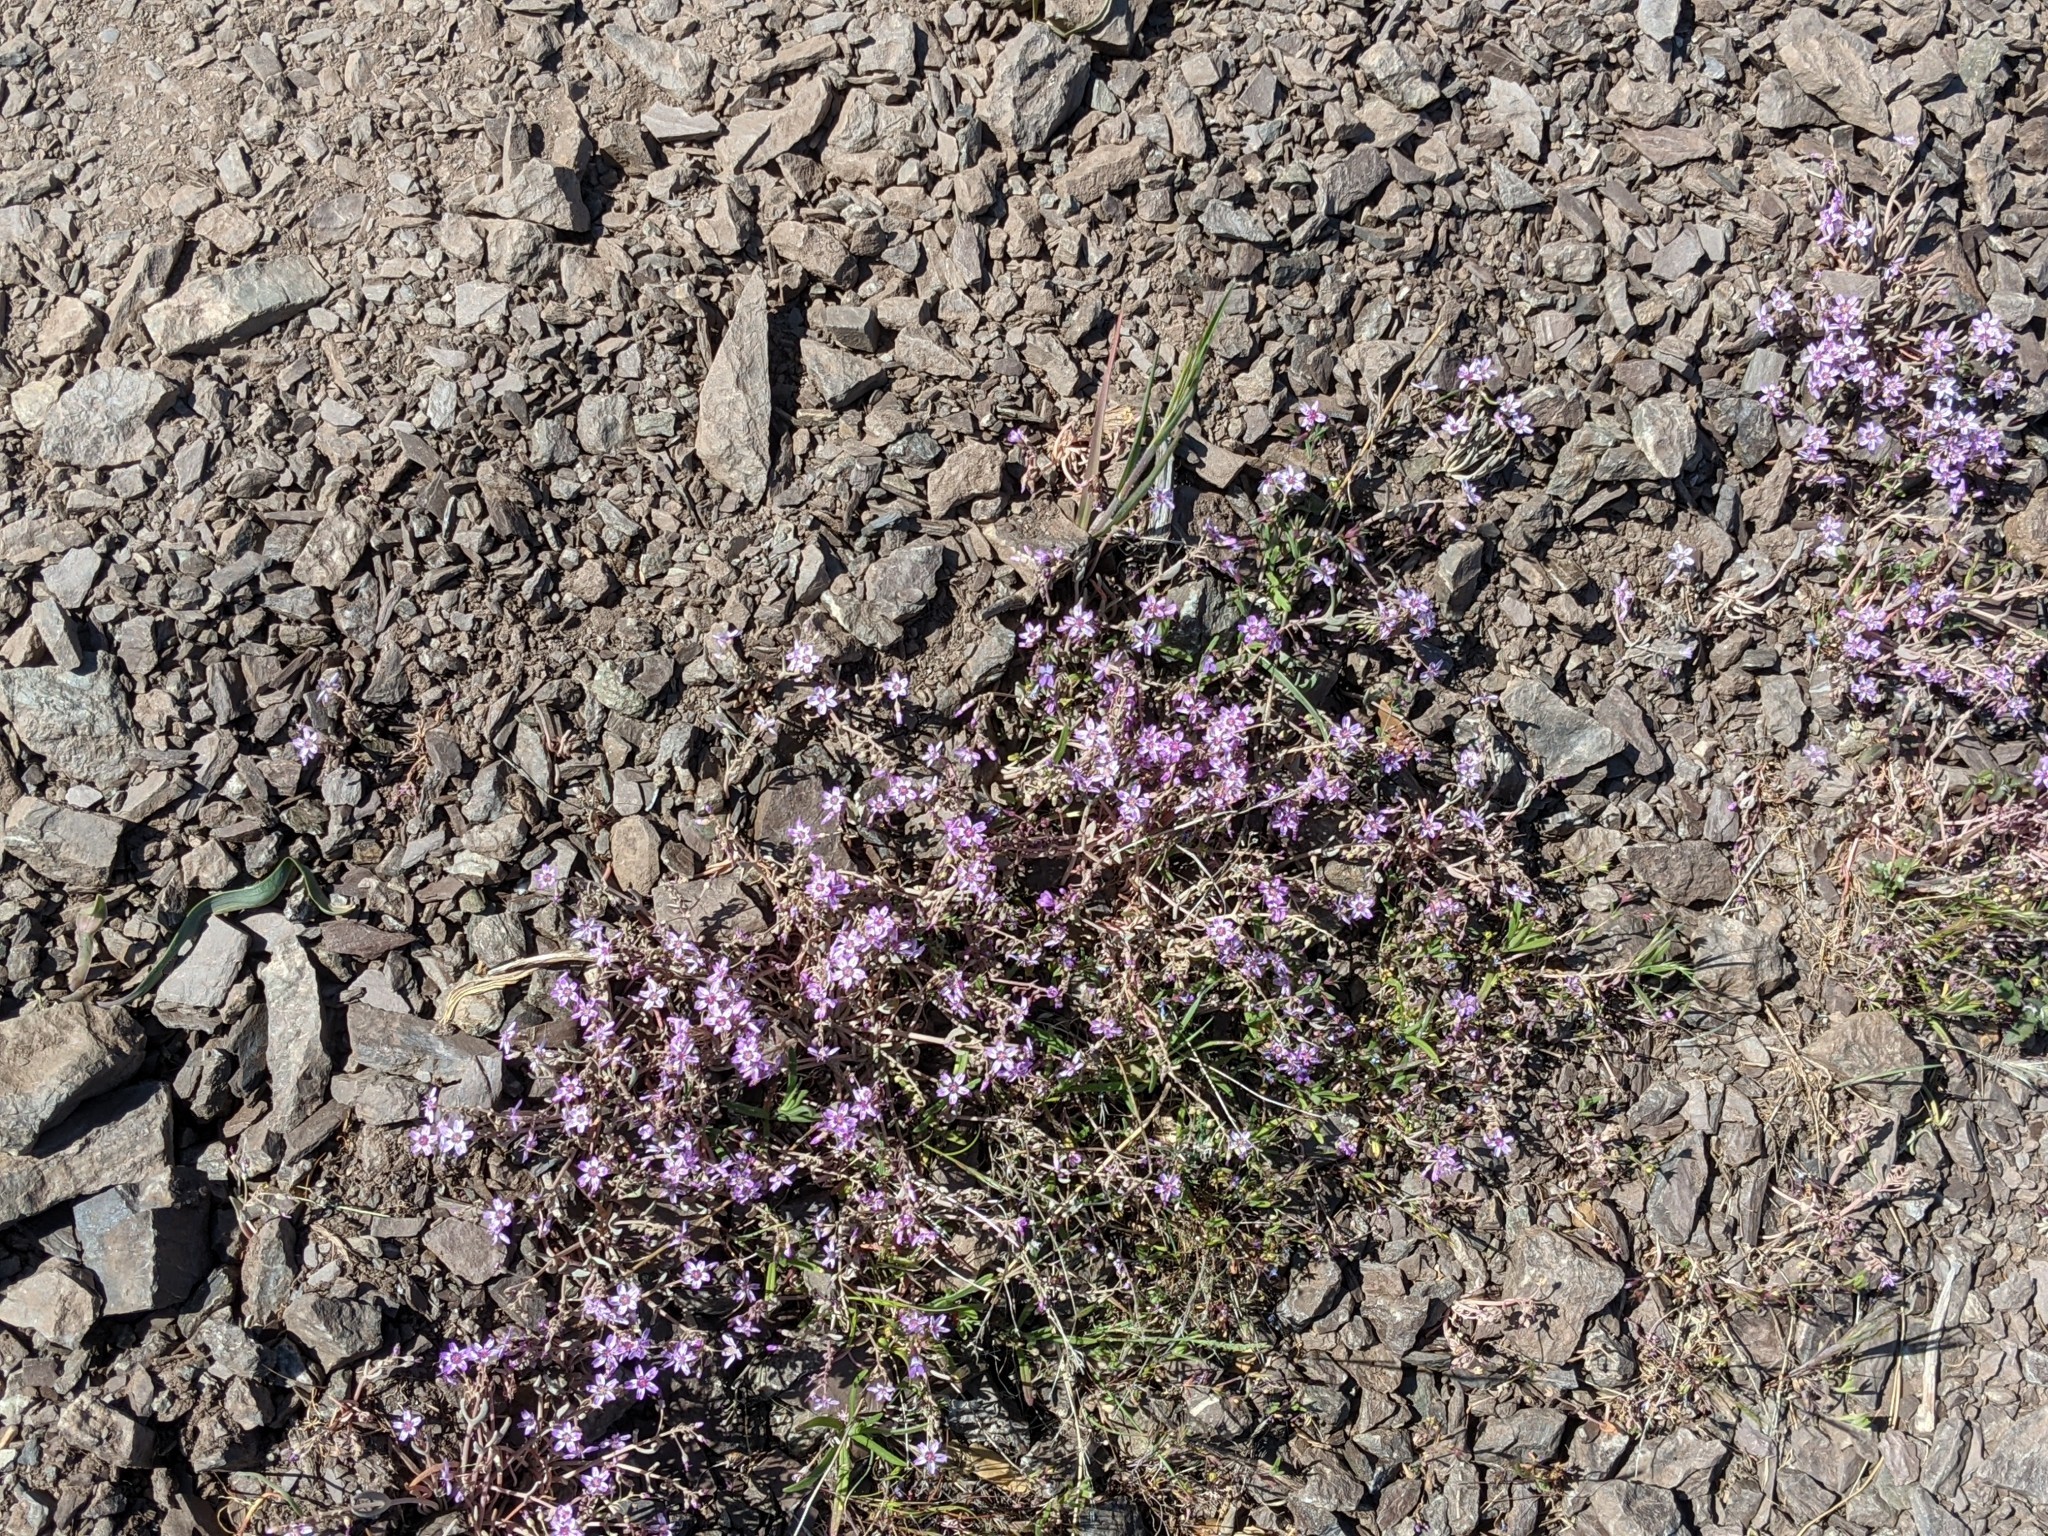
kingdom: Plantae
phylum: Tracheophyta
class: Magnoliopsida
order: Caryophyllales
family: Montiaceae
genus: Claytonia
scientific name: Claytonia gypsophiloides
